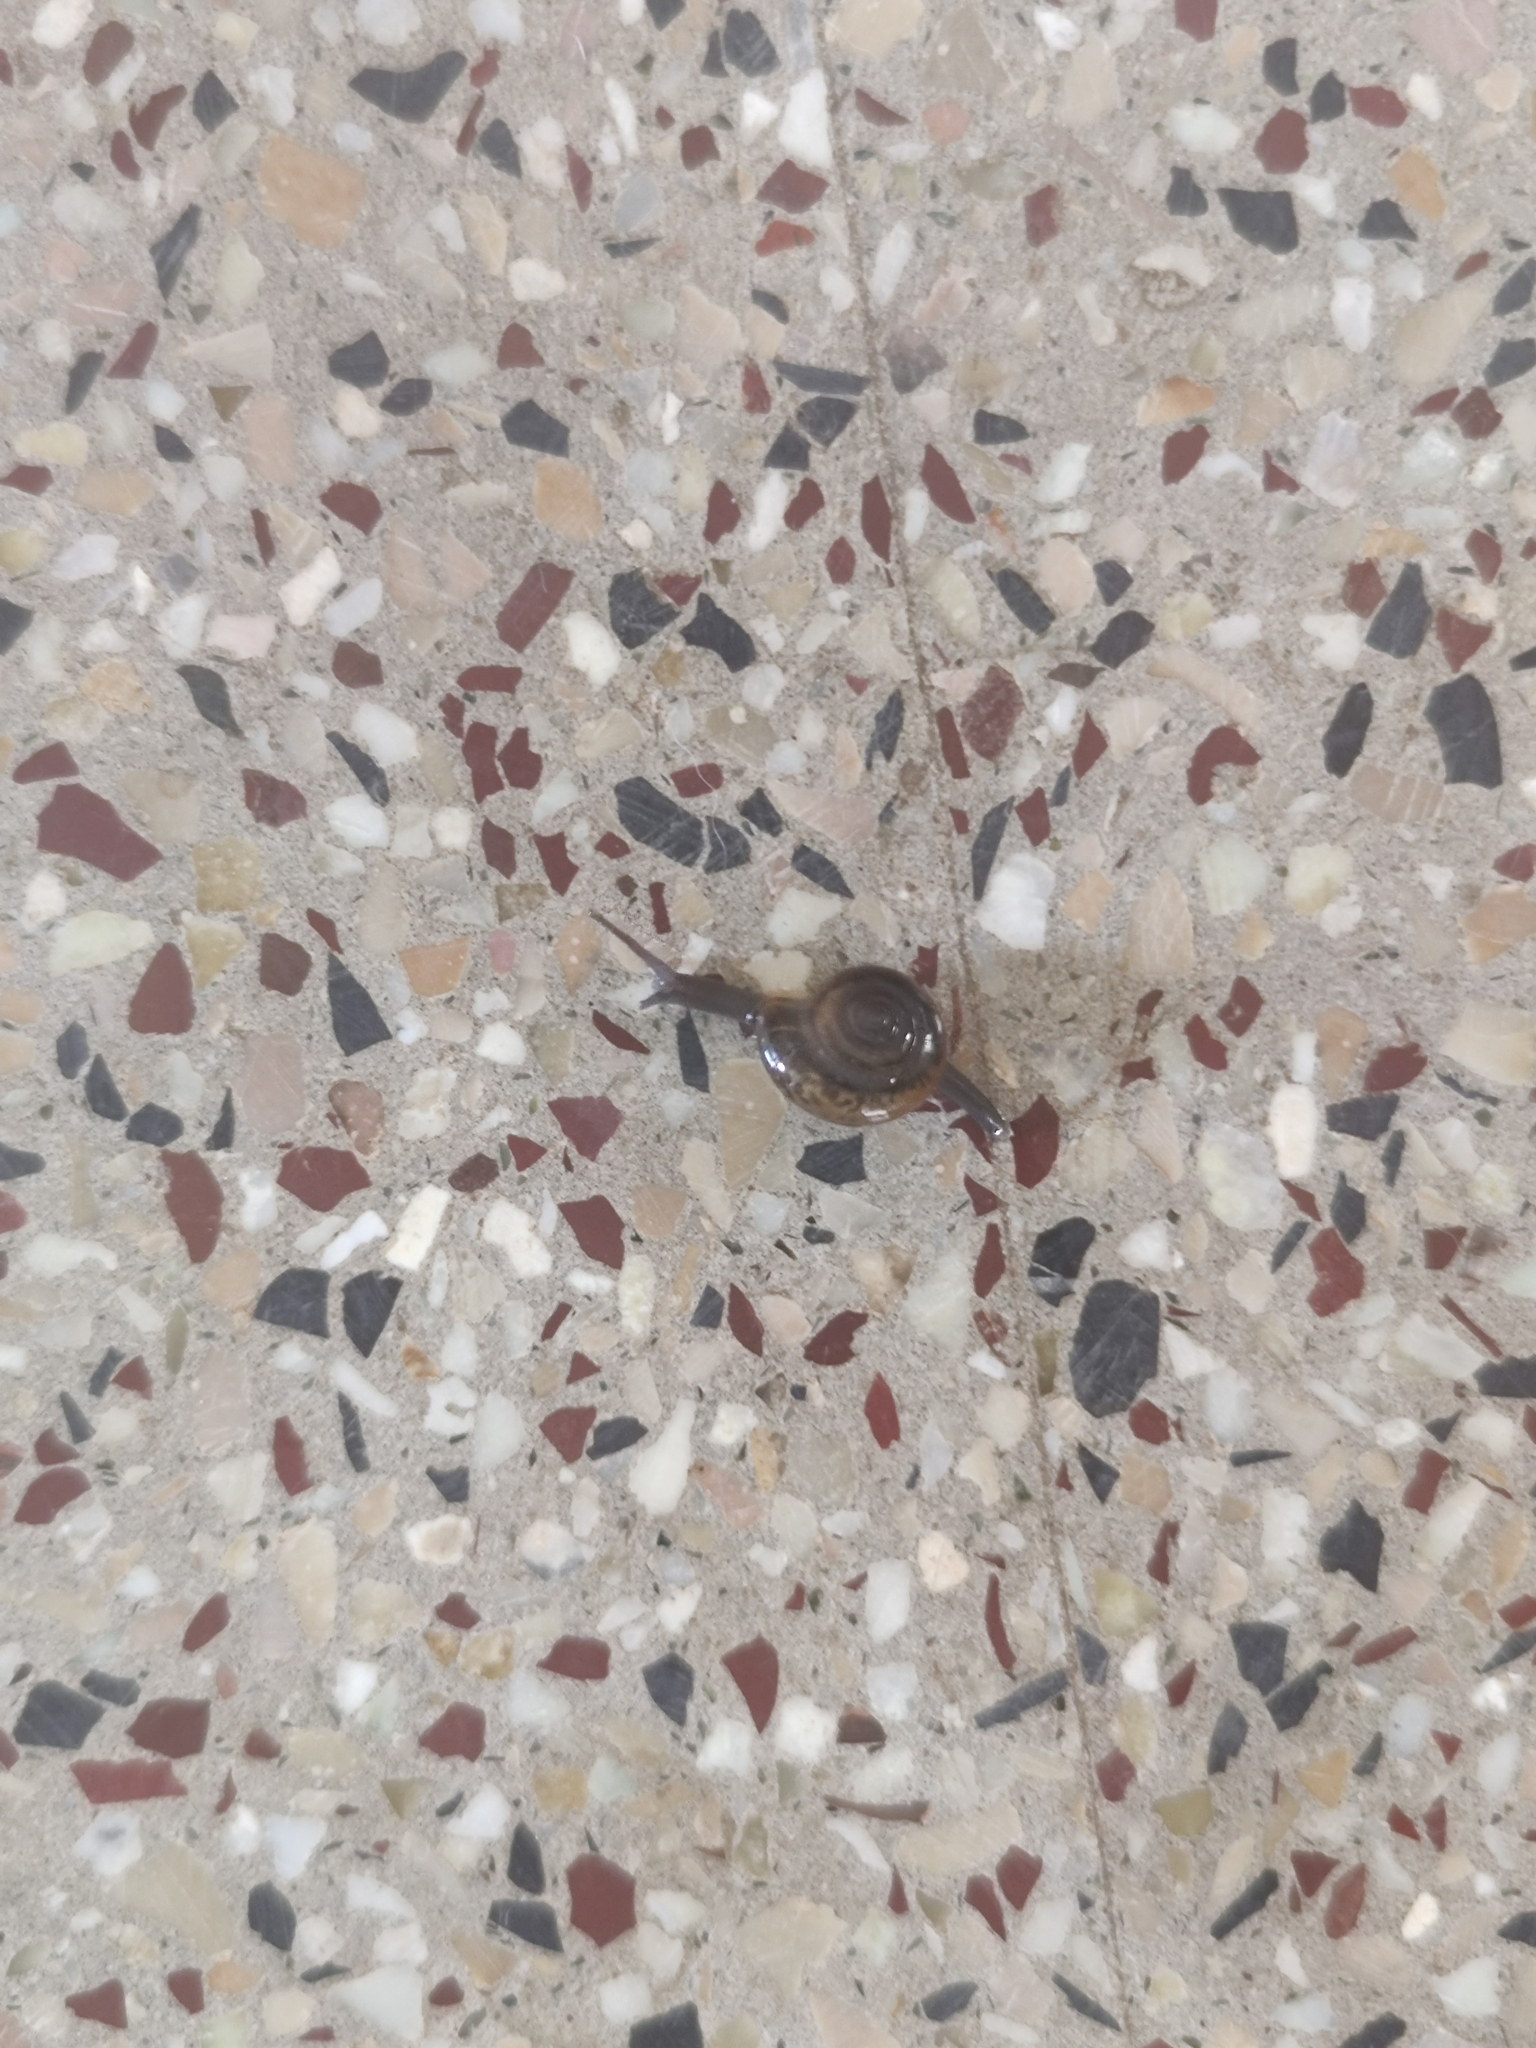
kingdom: Animalia
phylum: Mollusca
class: Gastropoda
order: Stylommatophora
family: Ariophantidae
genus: Macrochlamys
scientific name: Macrochlamys indica
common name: Horntail snail
